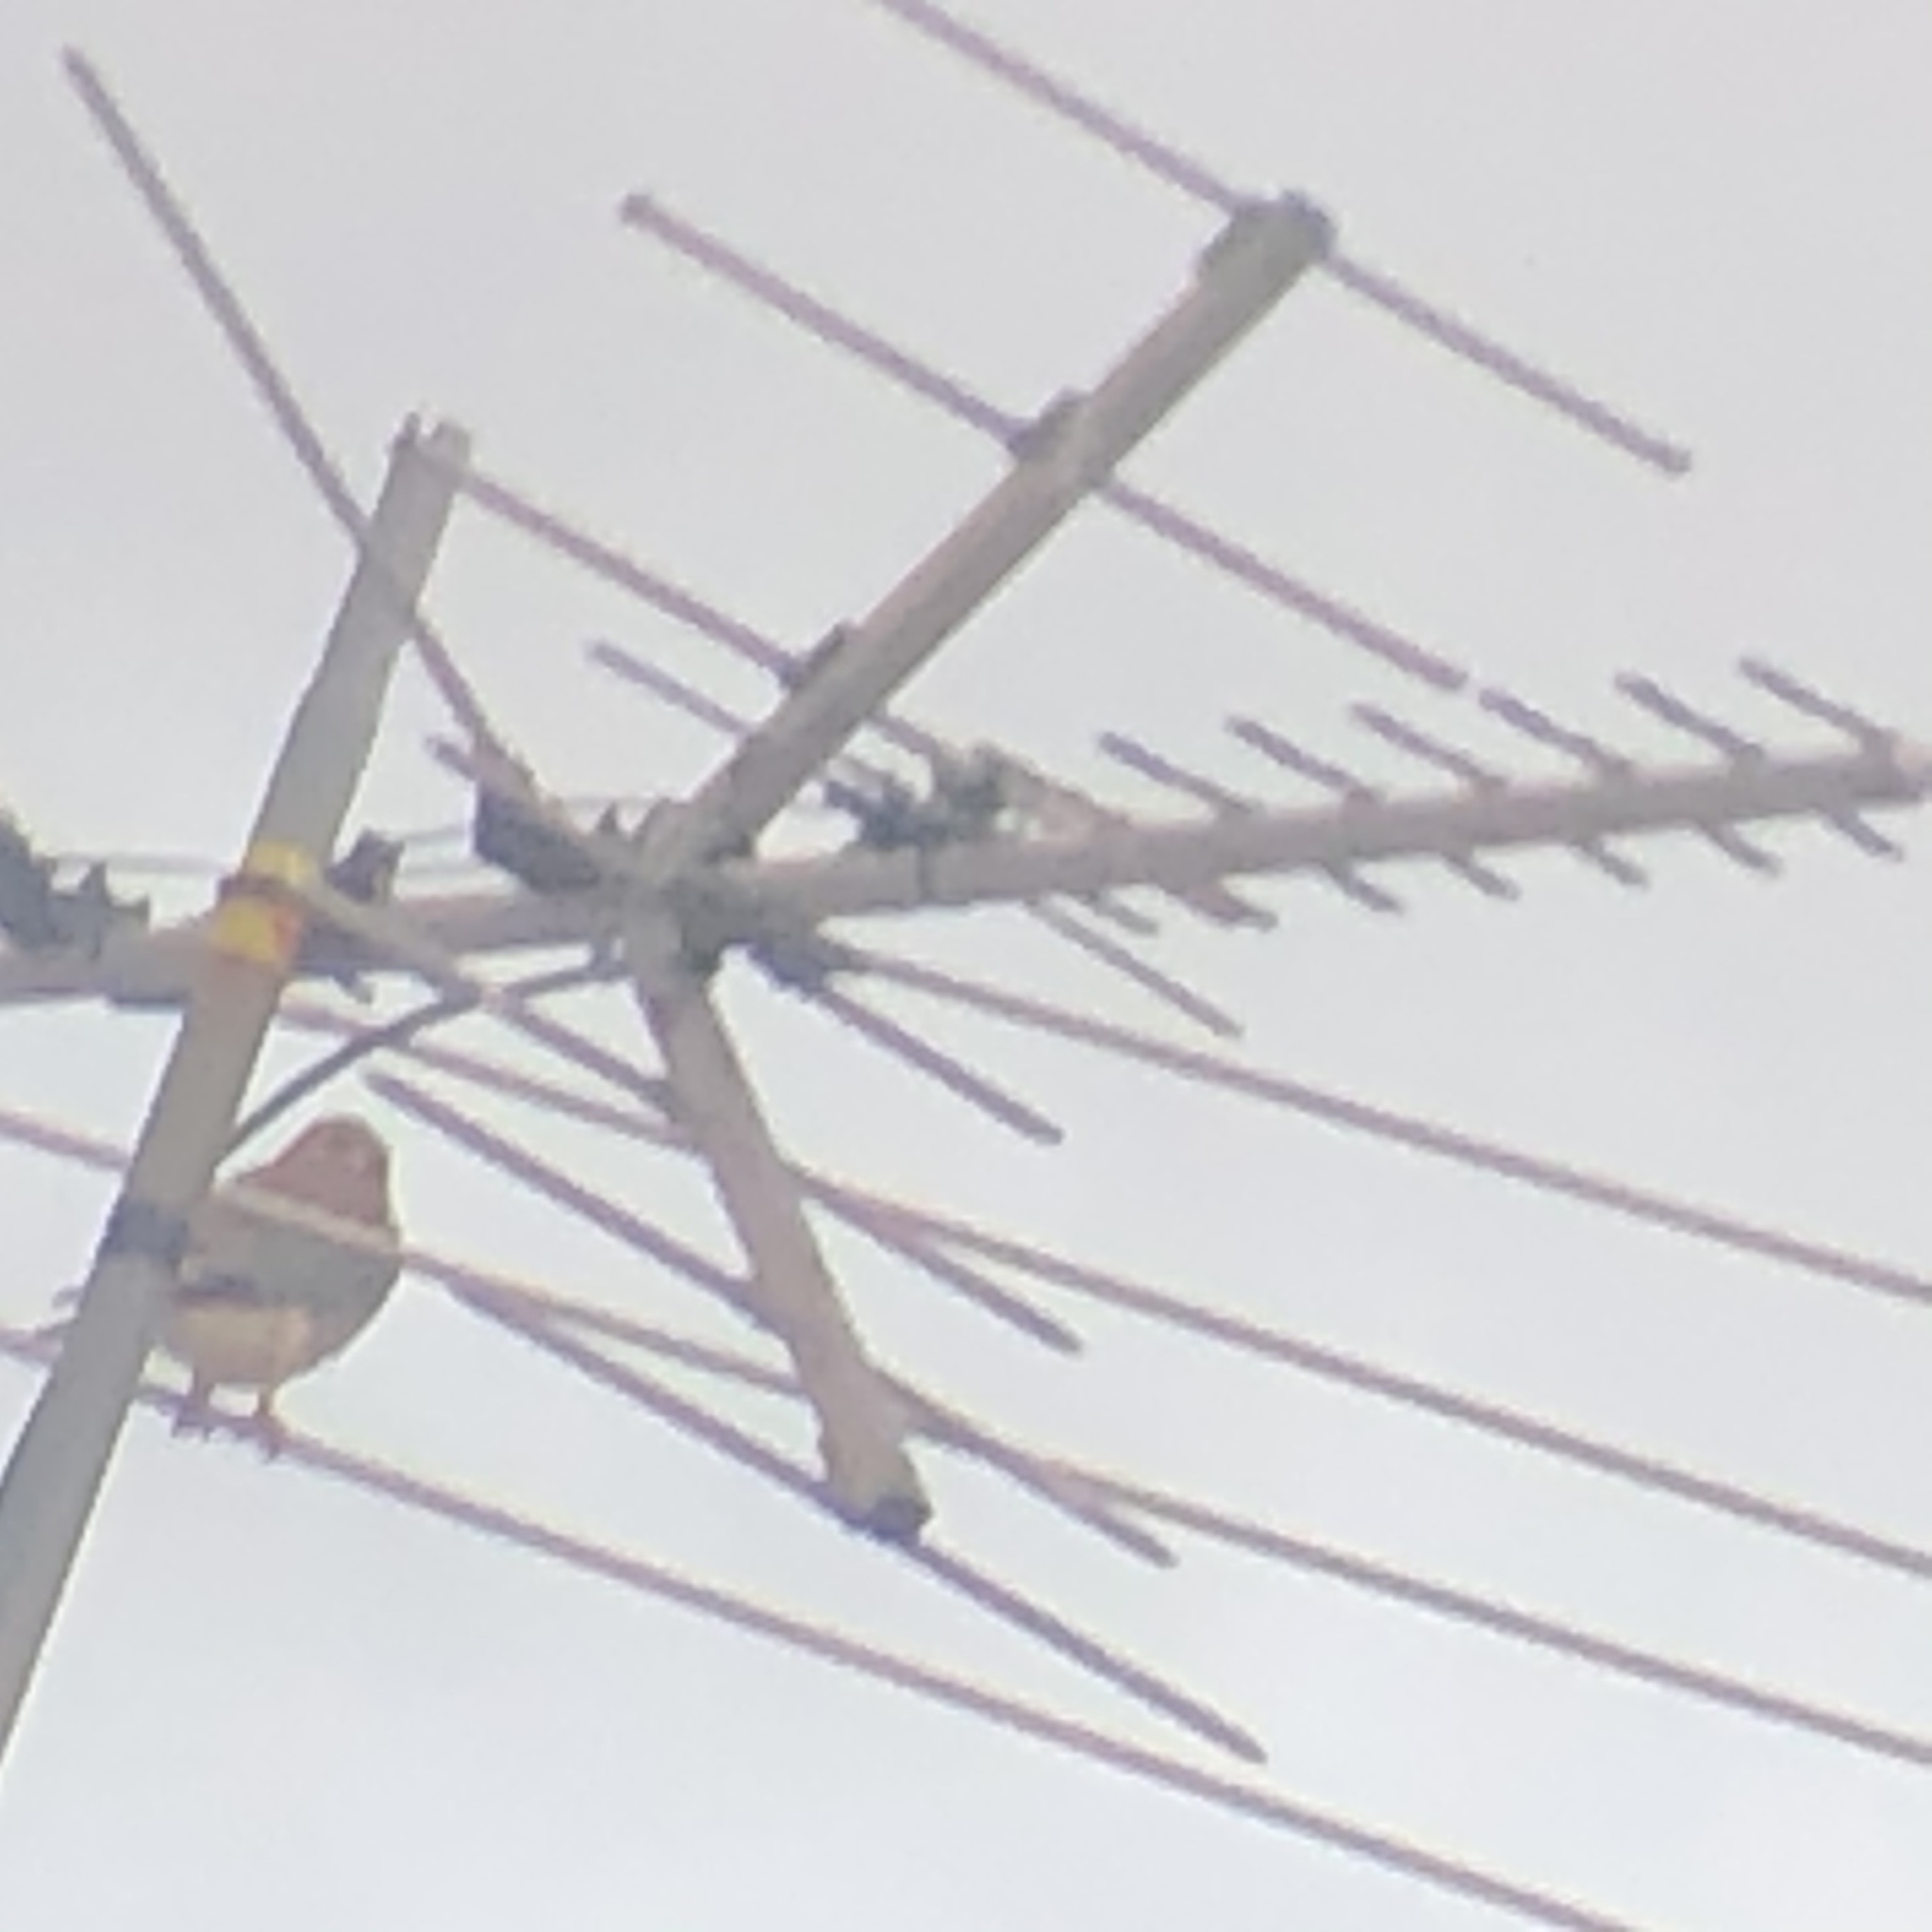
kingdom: Animalia
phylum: Chordata
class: Aves
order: Falconiformes
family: Falconidae
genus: Falco
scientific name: Falco sparverius
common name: American kestrel
